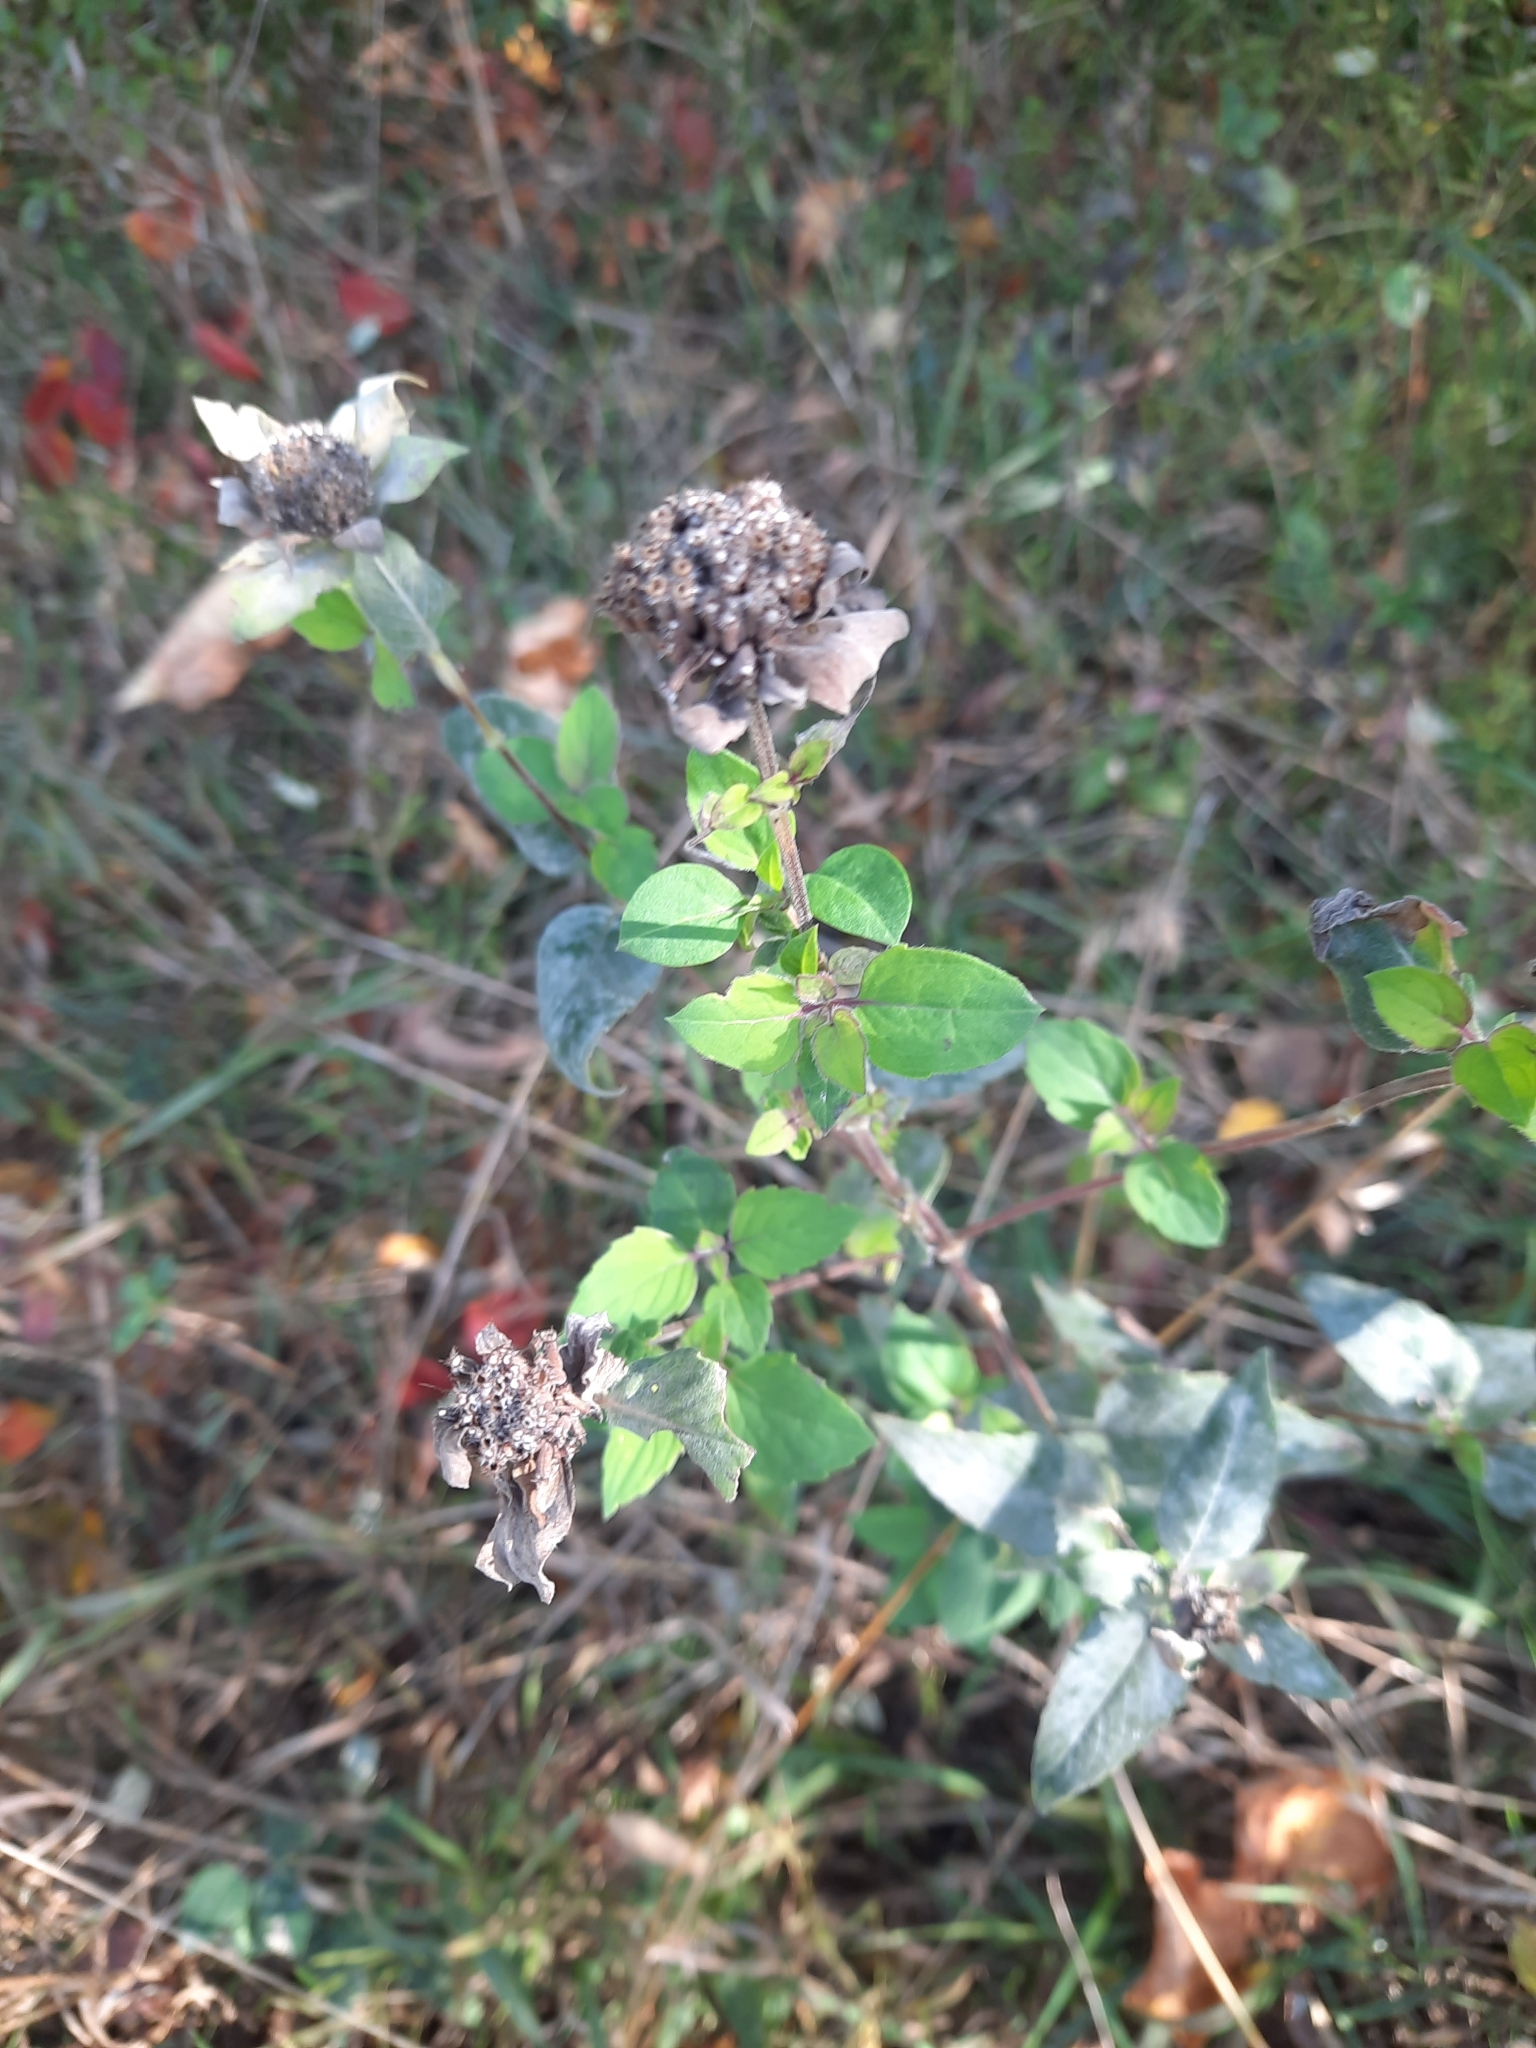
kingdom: Plantae
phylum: Tracheophyta
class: Magnoliopsida
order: Lamiales
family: Lamiaceae
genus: Monarda
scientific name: Monarda fistulosa
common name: Purple beebalm
